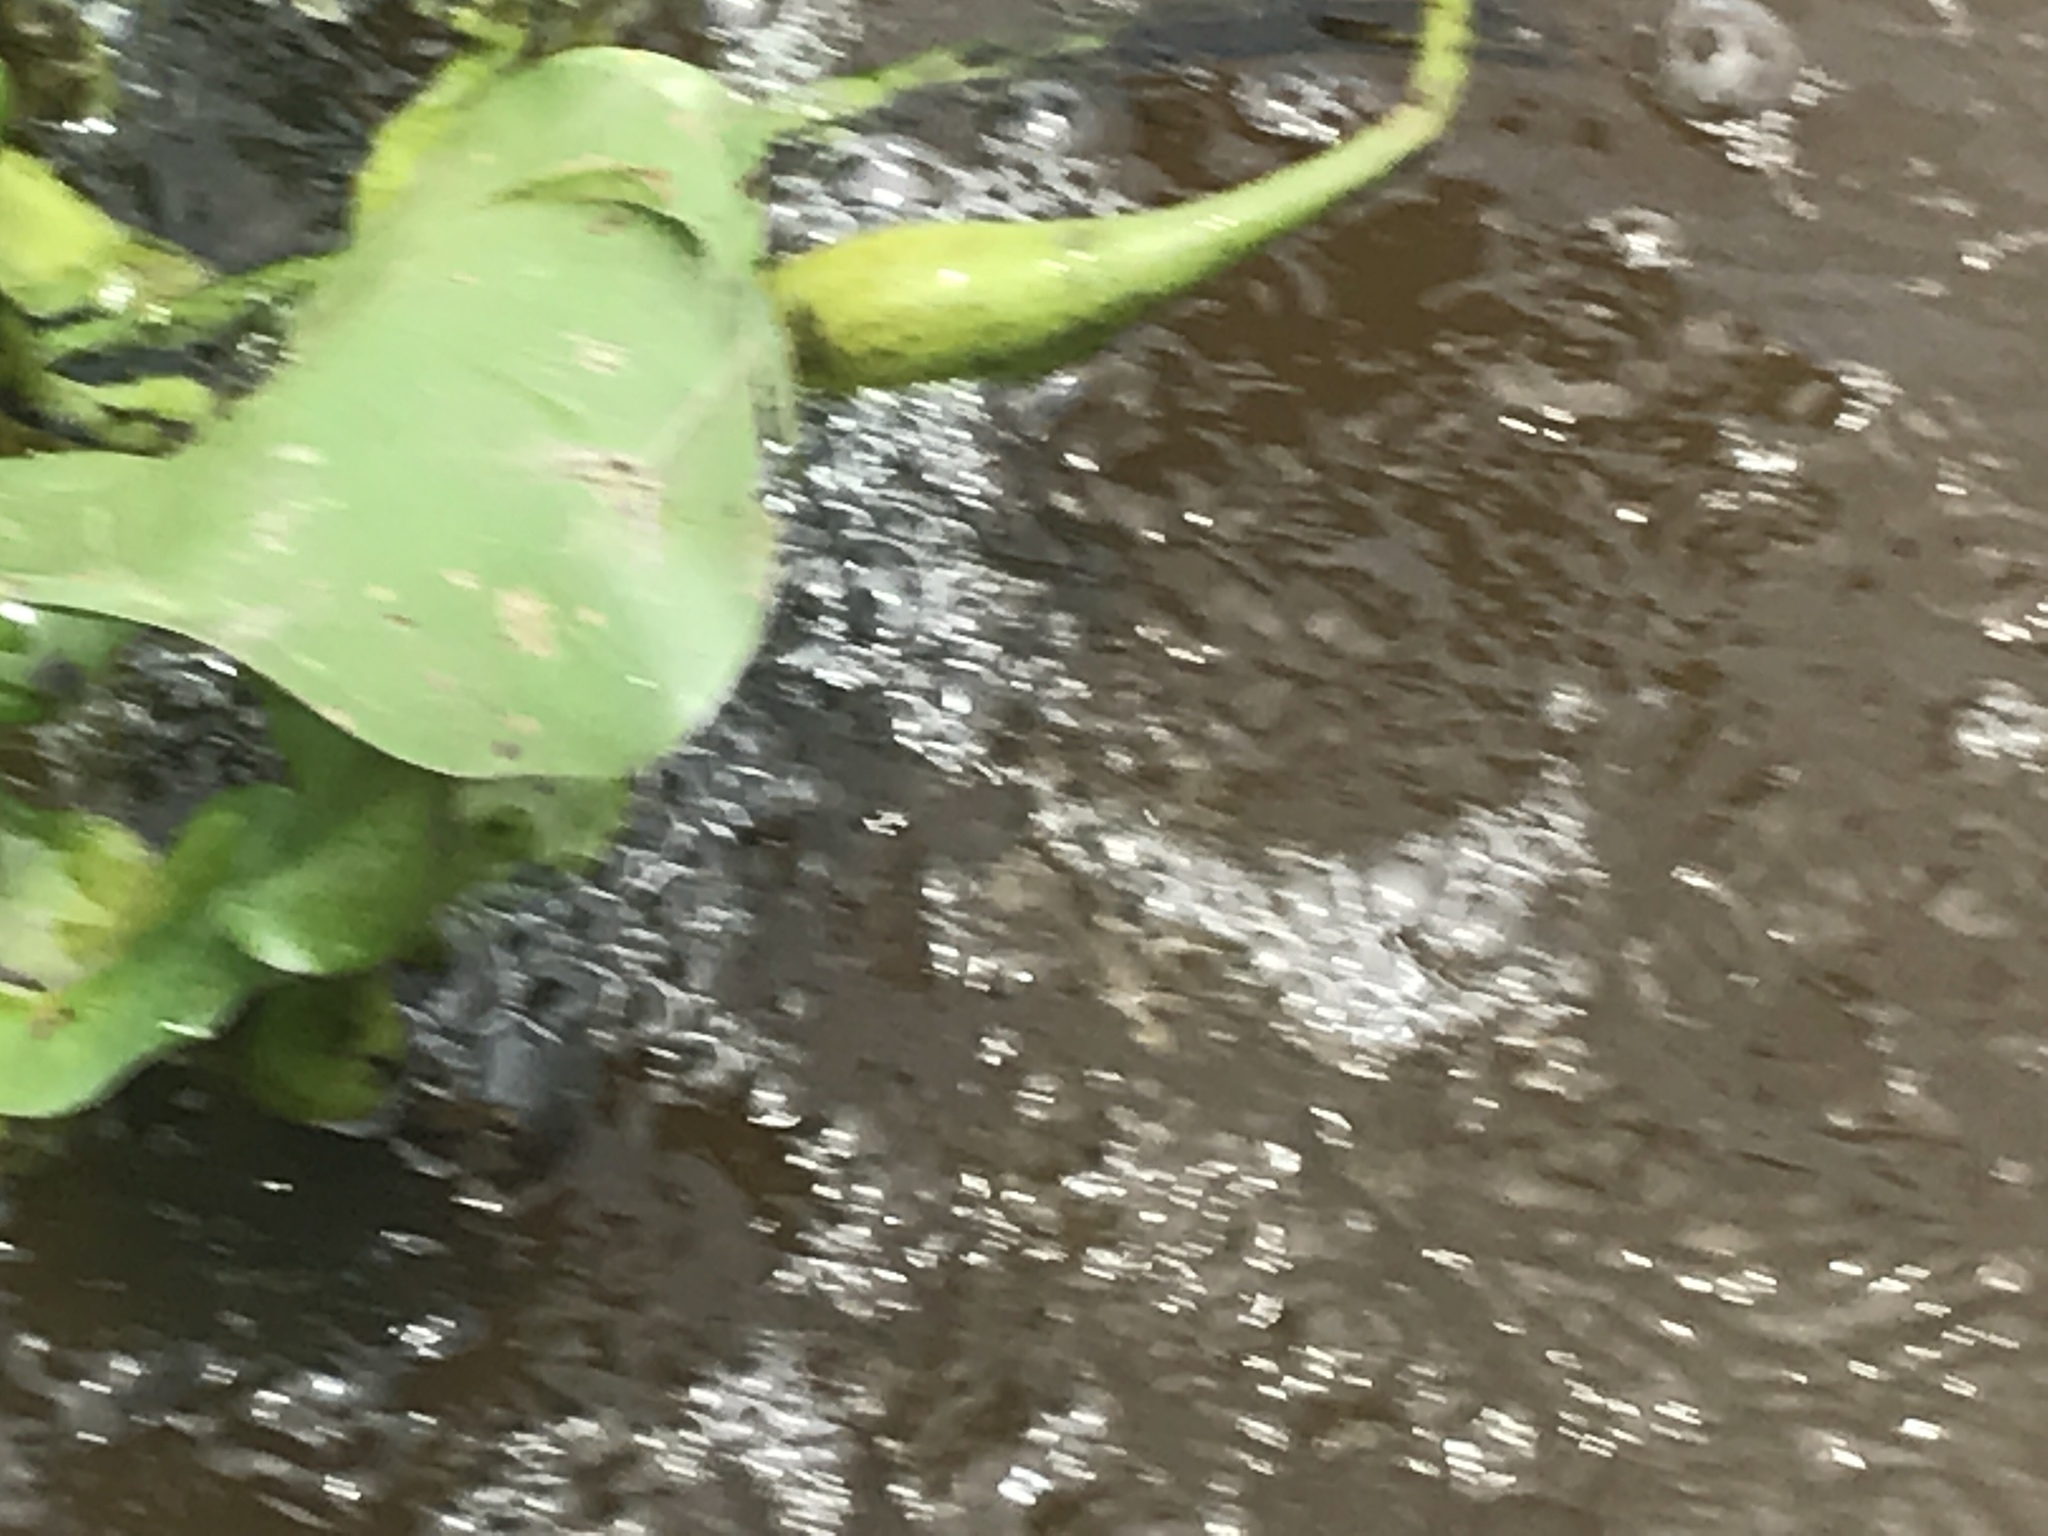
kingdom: Plantae
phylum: Tracheophyta
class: Liliopsida
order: Commelinales
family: Pontederiaceae
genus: Pontederia
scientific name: Pontederia crassipes
